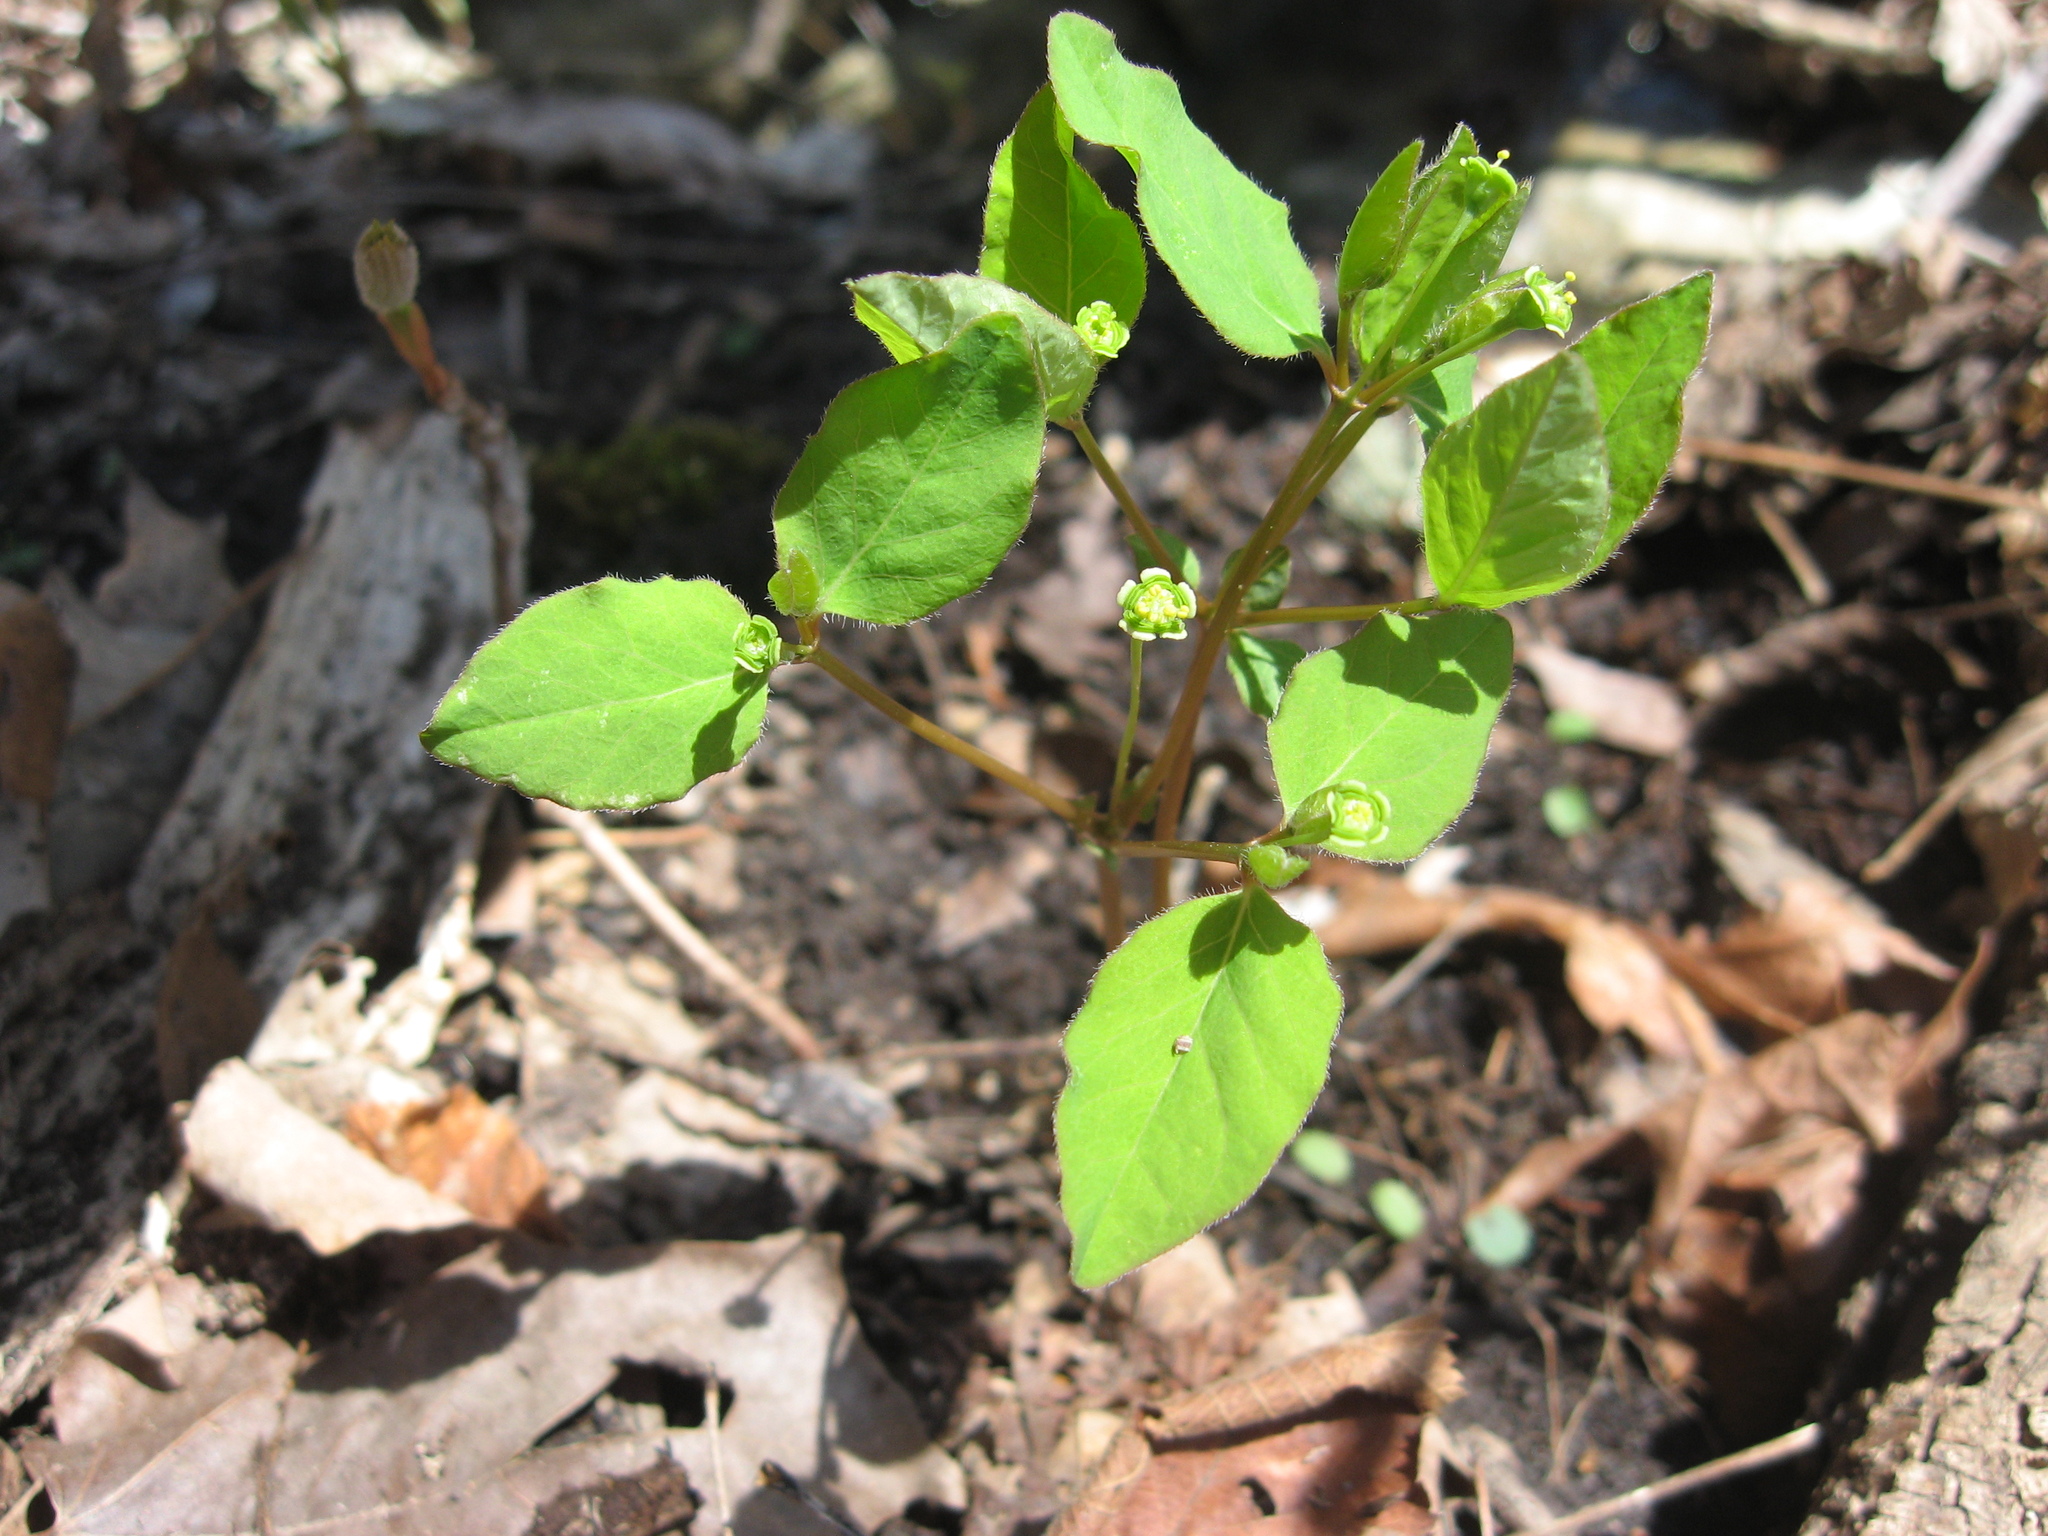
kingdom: Plantae
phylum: Tracheophyta
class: Magnoliopsida
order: Malpighiales
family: Euphorbiaceae
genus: Euphorbia
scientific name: Euphorbia mercurialina
